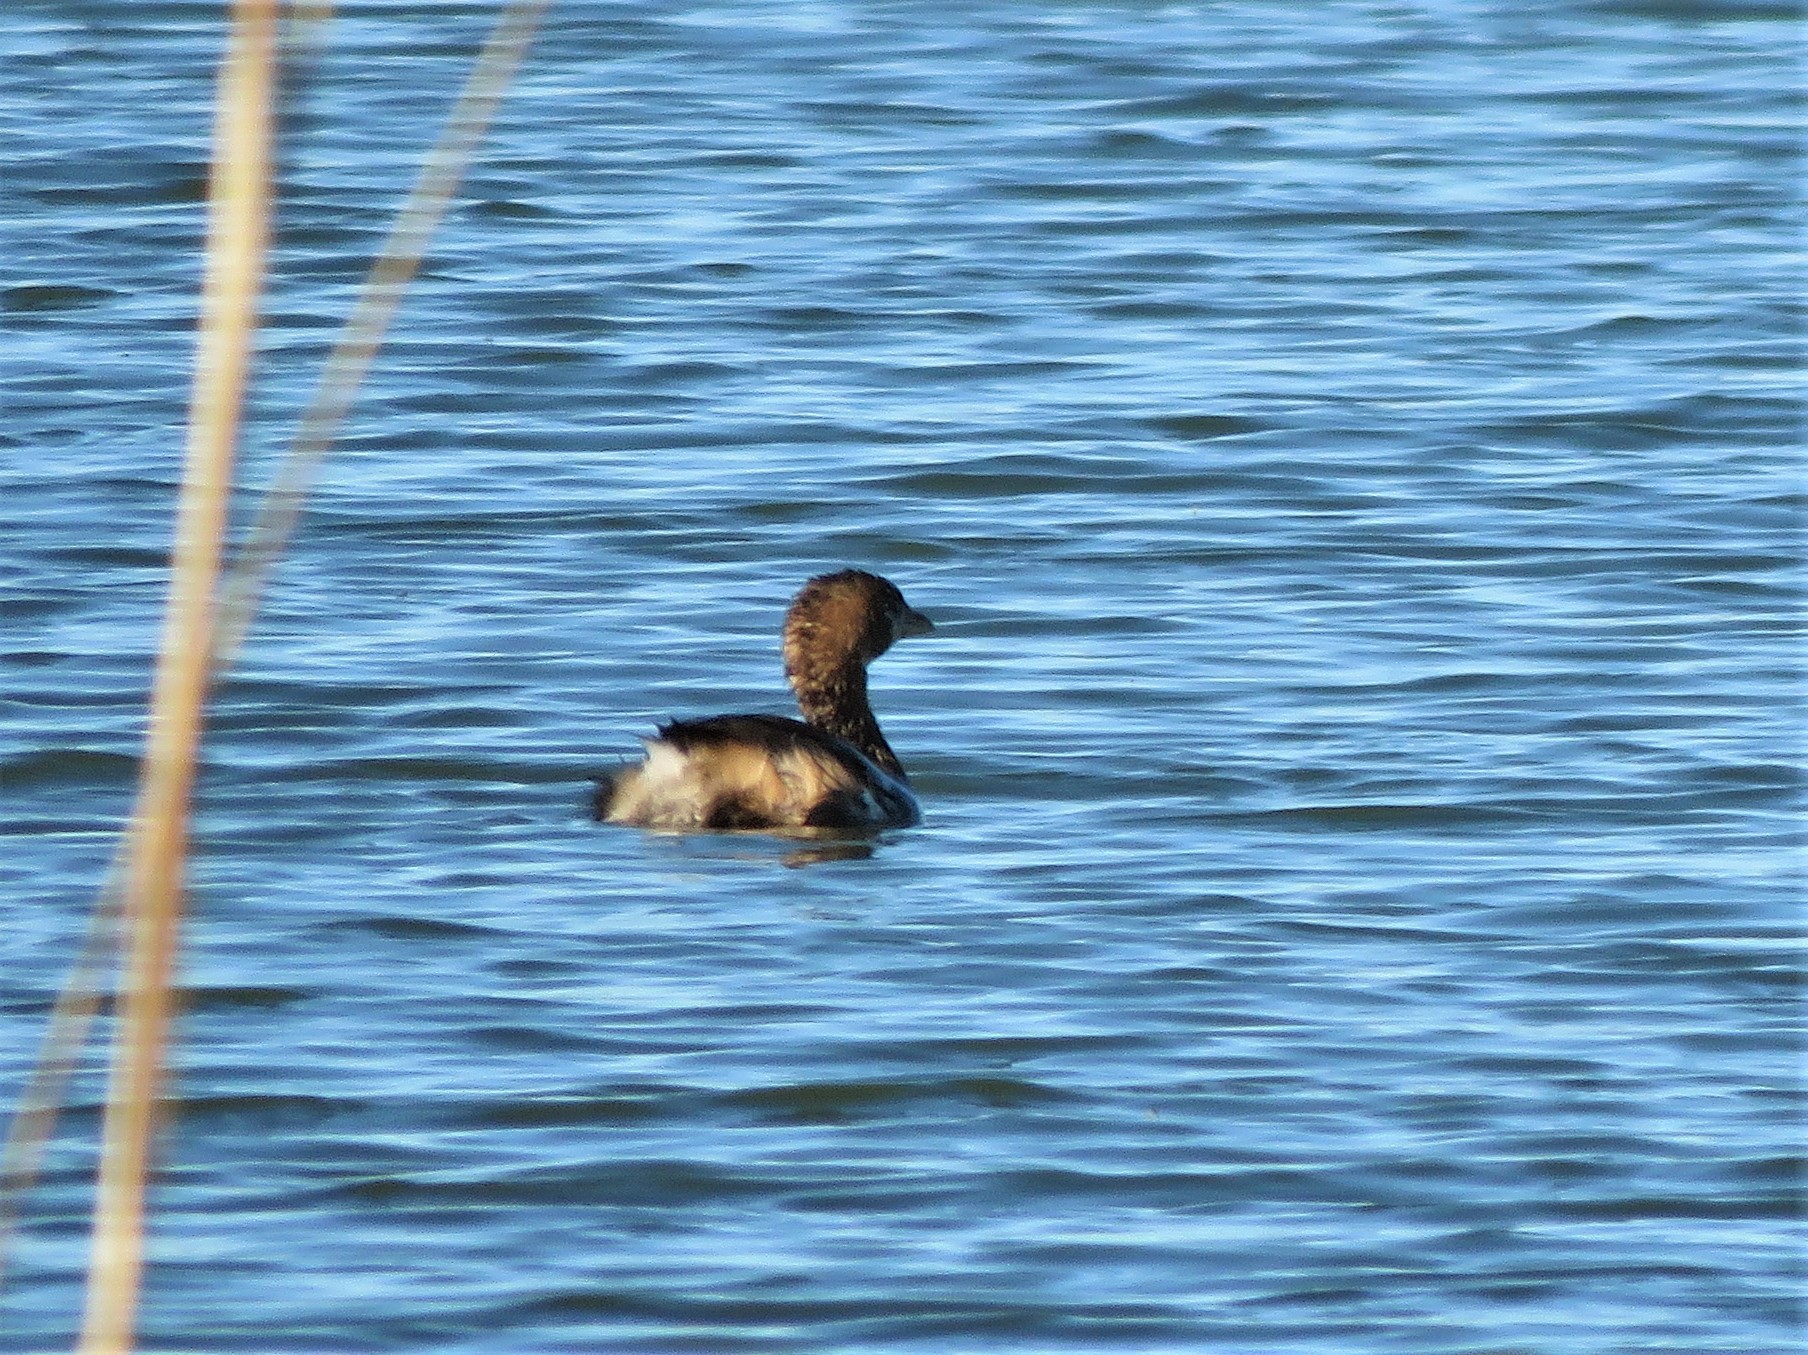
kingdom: Animalia
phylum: Chordata
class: Aves
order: Podicipediformes
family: Podicipedidae
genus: Podilymbus
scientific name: Podilymbus podiceps
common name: Pied-billed grebe
